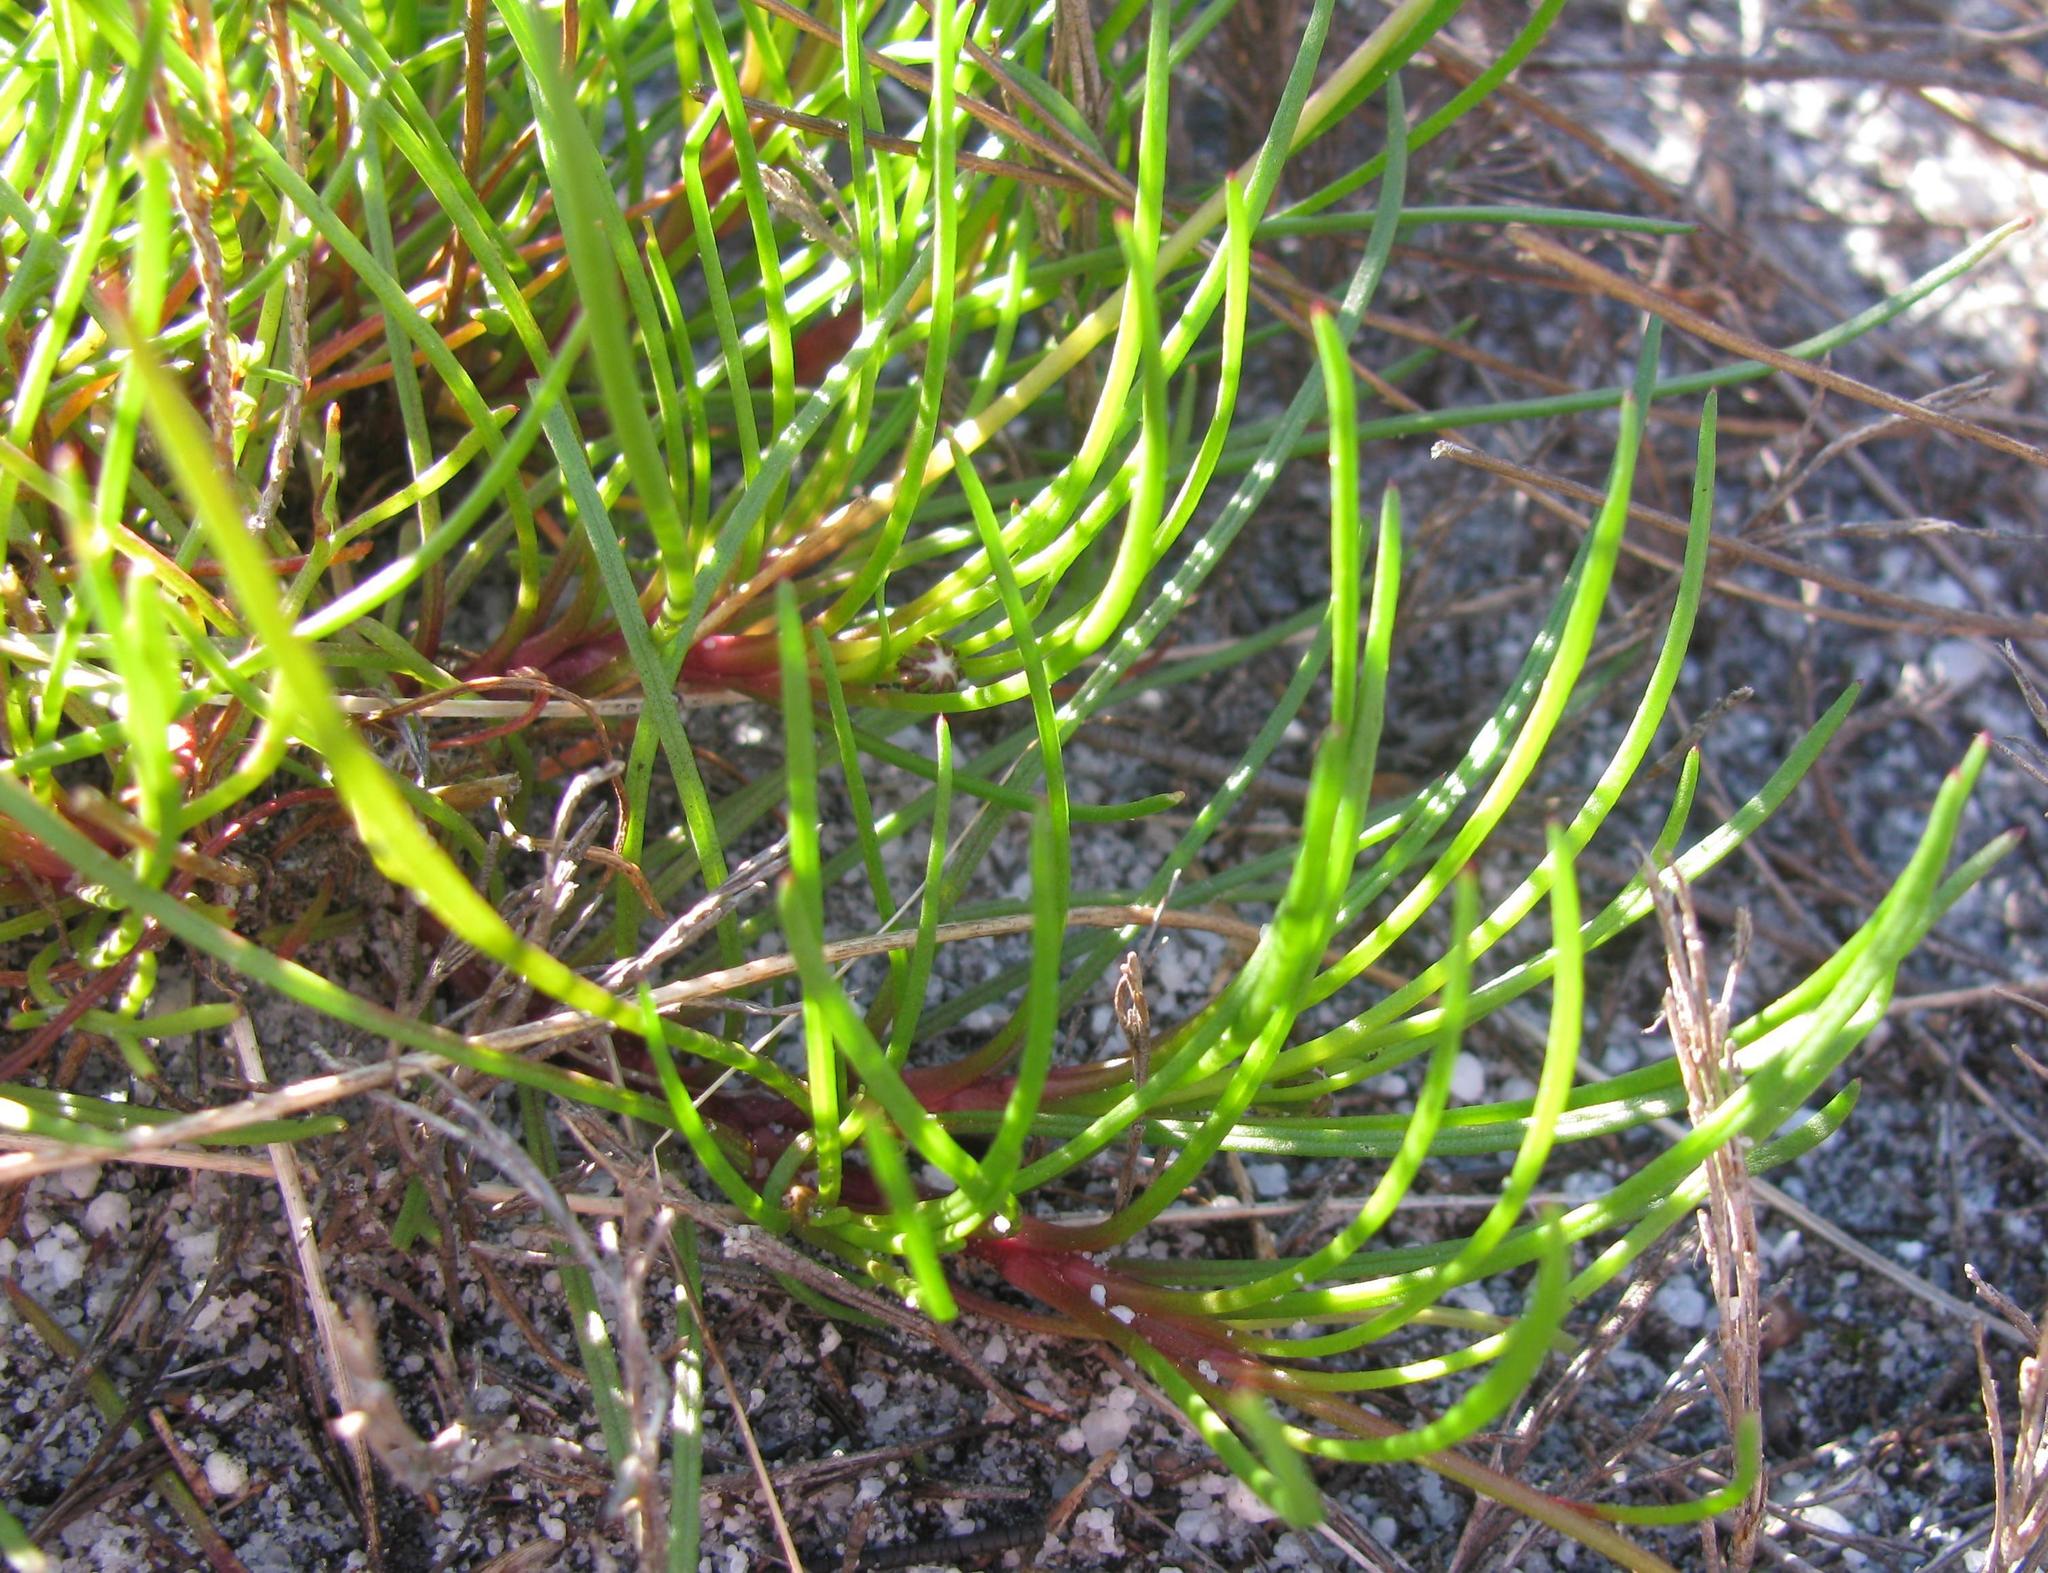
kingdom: Plantae
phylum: Tracheophyta
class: Magnoliopsida
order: Asterales
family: Asteraceae
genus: Ursinia
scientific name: Ursinia tenuifolia
